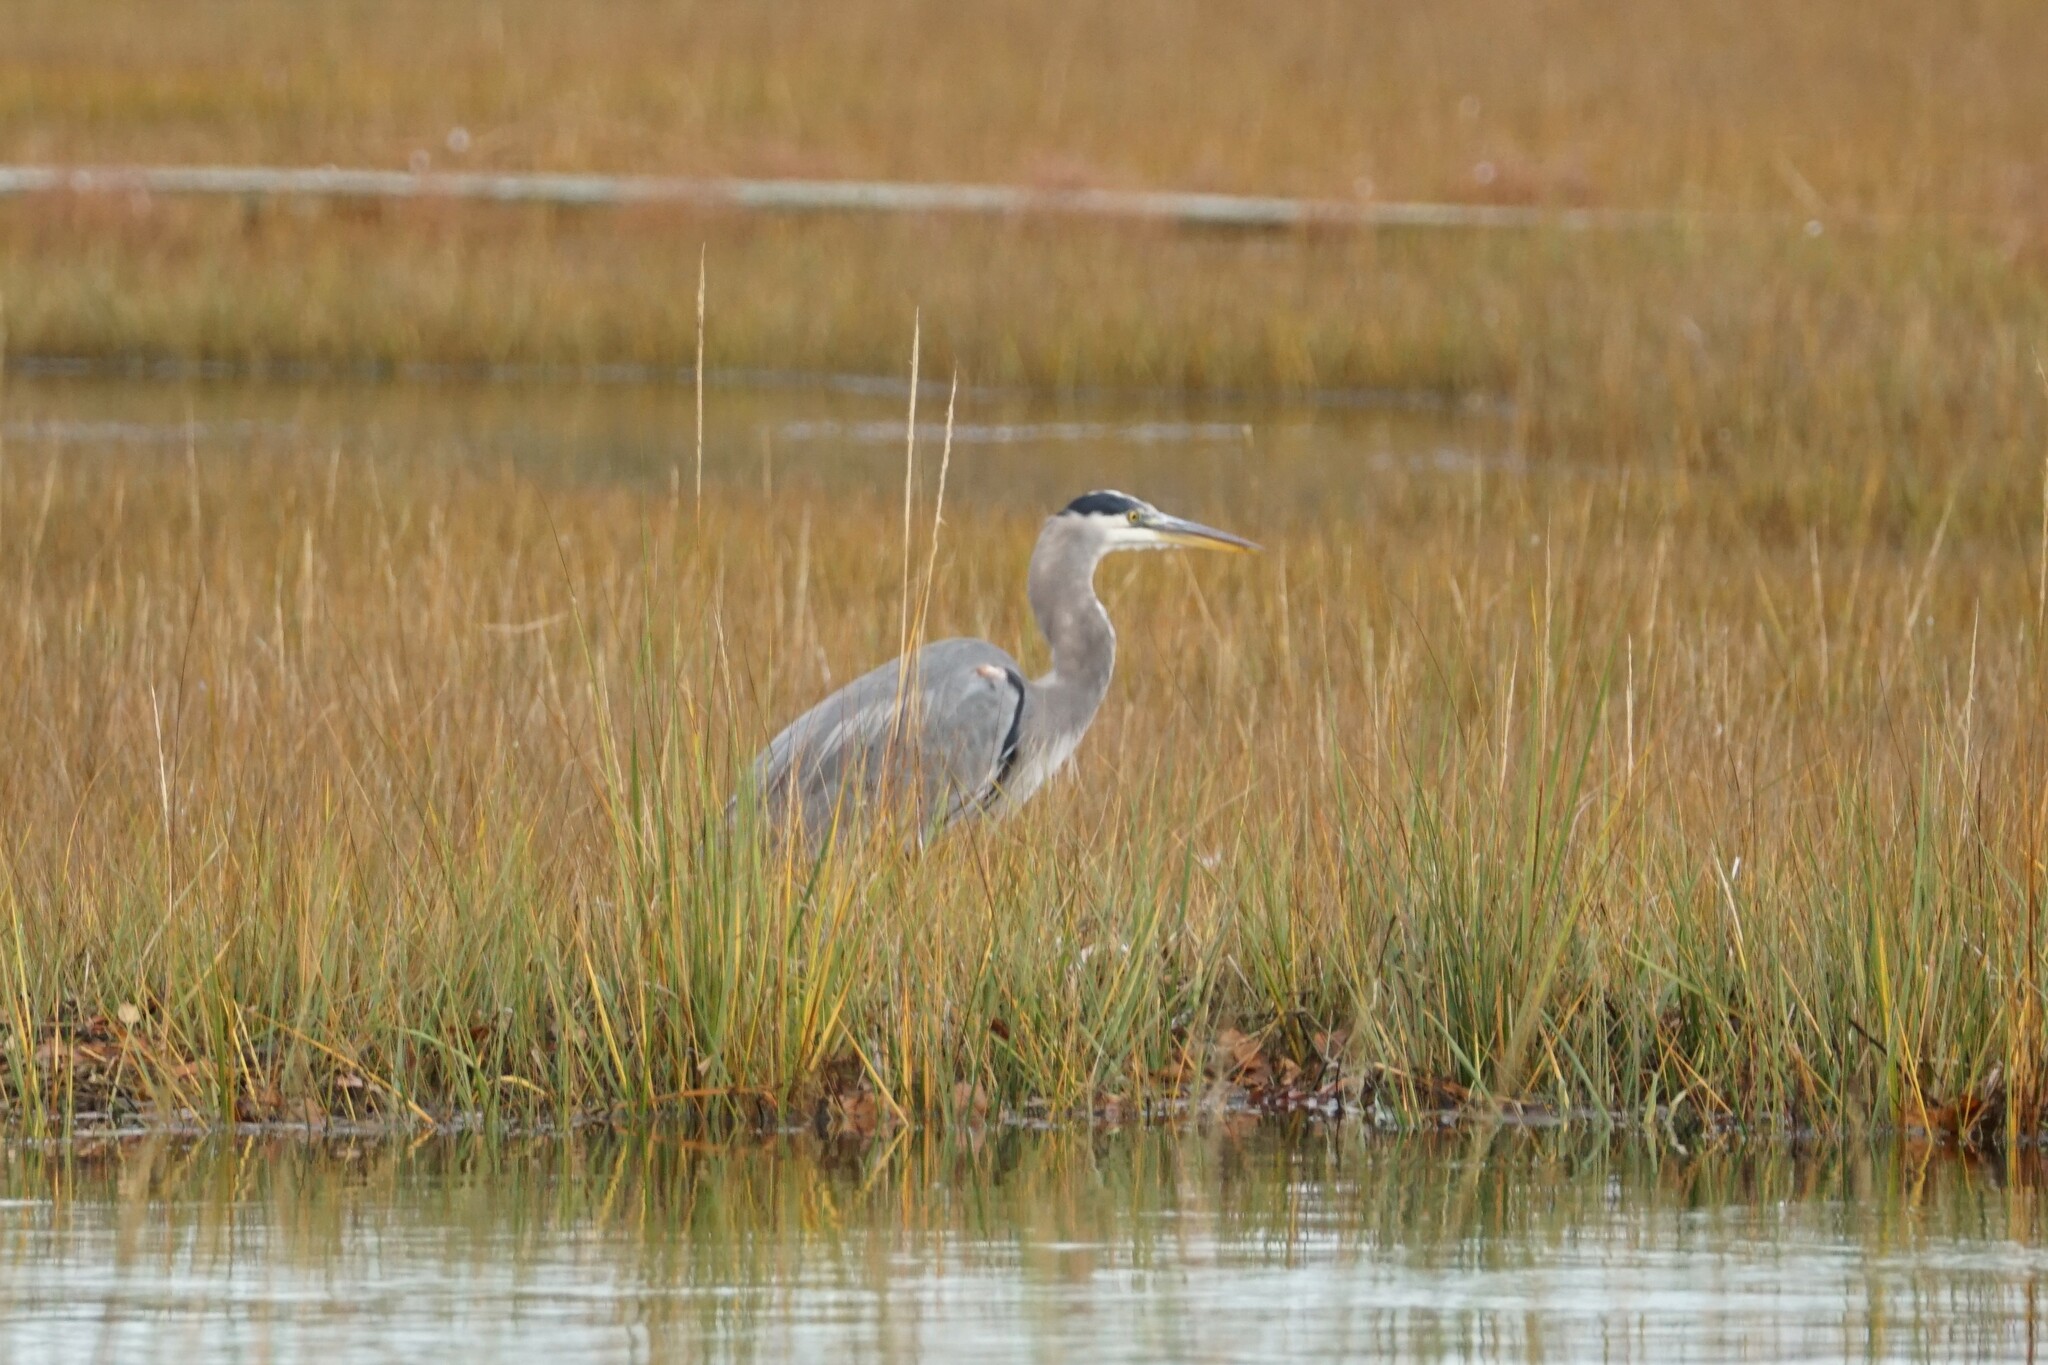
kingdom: Animalia
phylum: Chordata
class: Aves
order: Pelecaniformes
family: Ardeidae
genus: Ardea
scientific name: Ardea herodias
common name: Great blue heron
